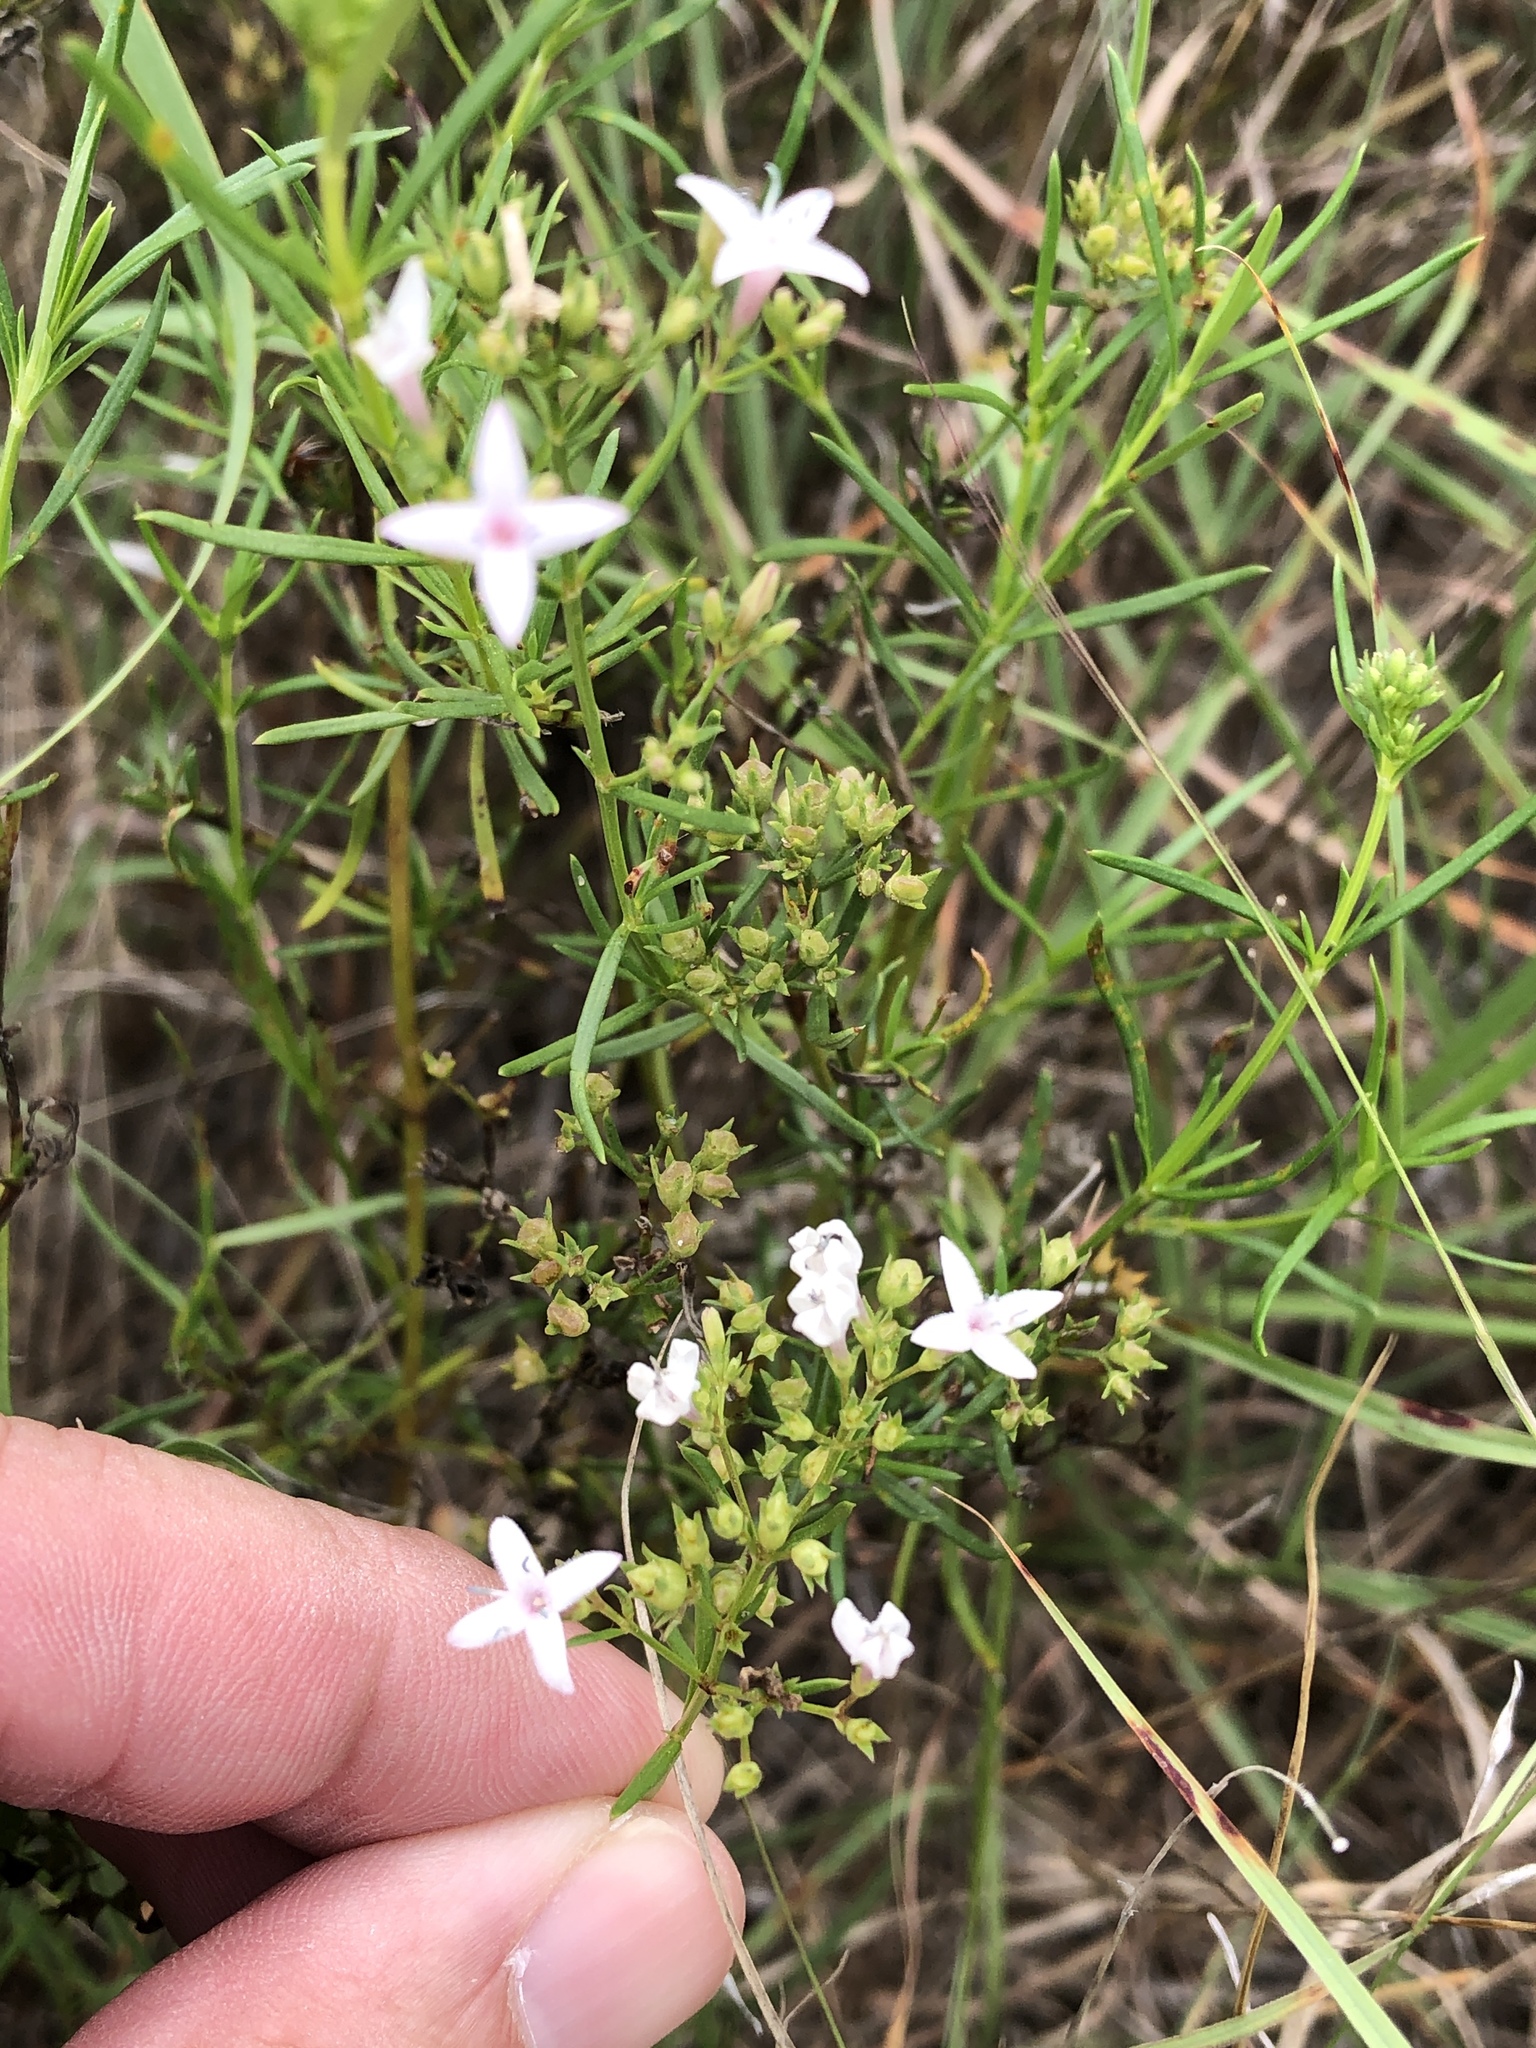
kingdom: Plantae
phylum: Tracheophyta
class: Magnoliopsida
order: Gentianales
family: Rubiaceae
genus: Stenaria
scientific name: Stenaria nigricans
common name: Diamondflowers
